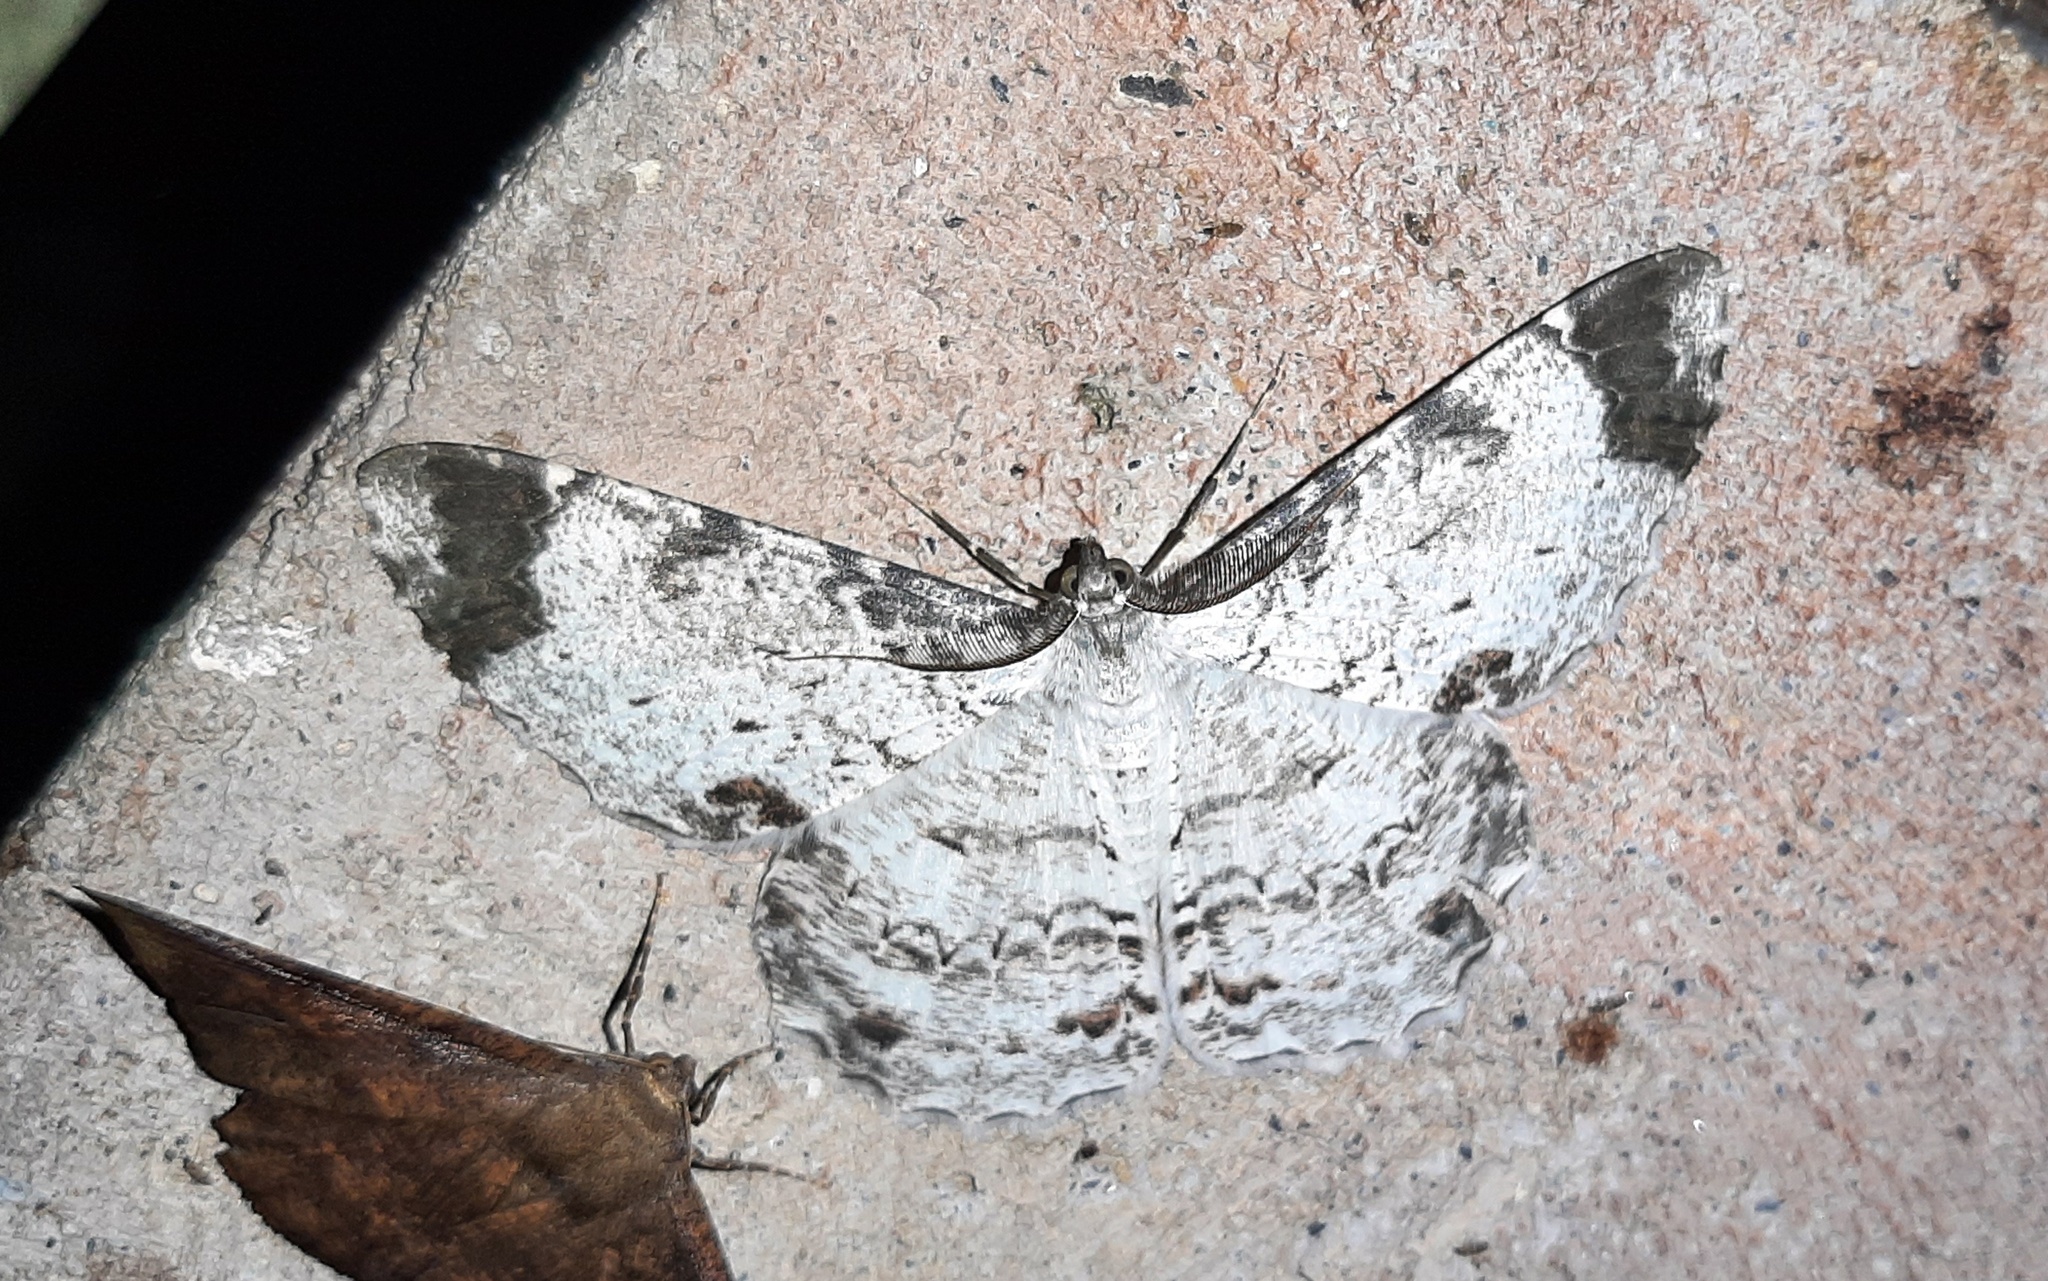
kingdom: Animalia
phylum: Arthropoda
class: Insecta
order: Lepidoptera
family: Geometridae
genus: Epimecis
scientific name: Epimecis anonaria
